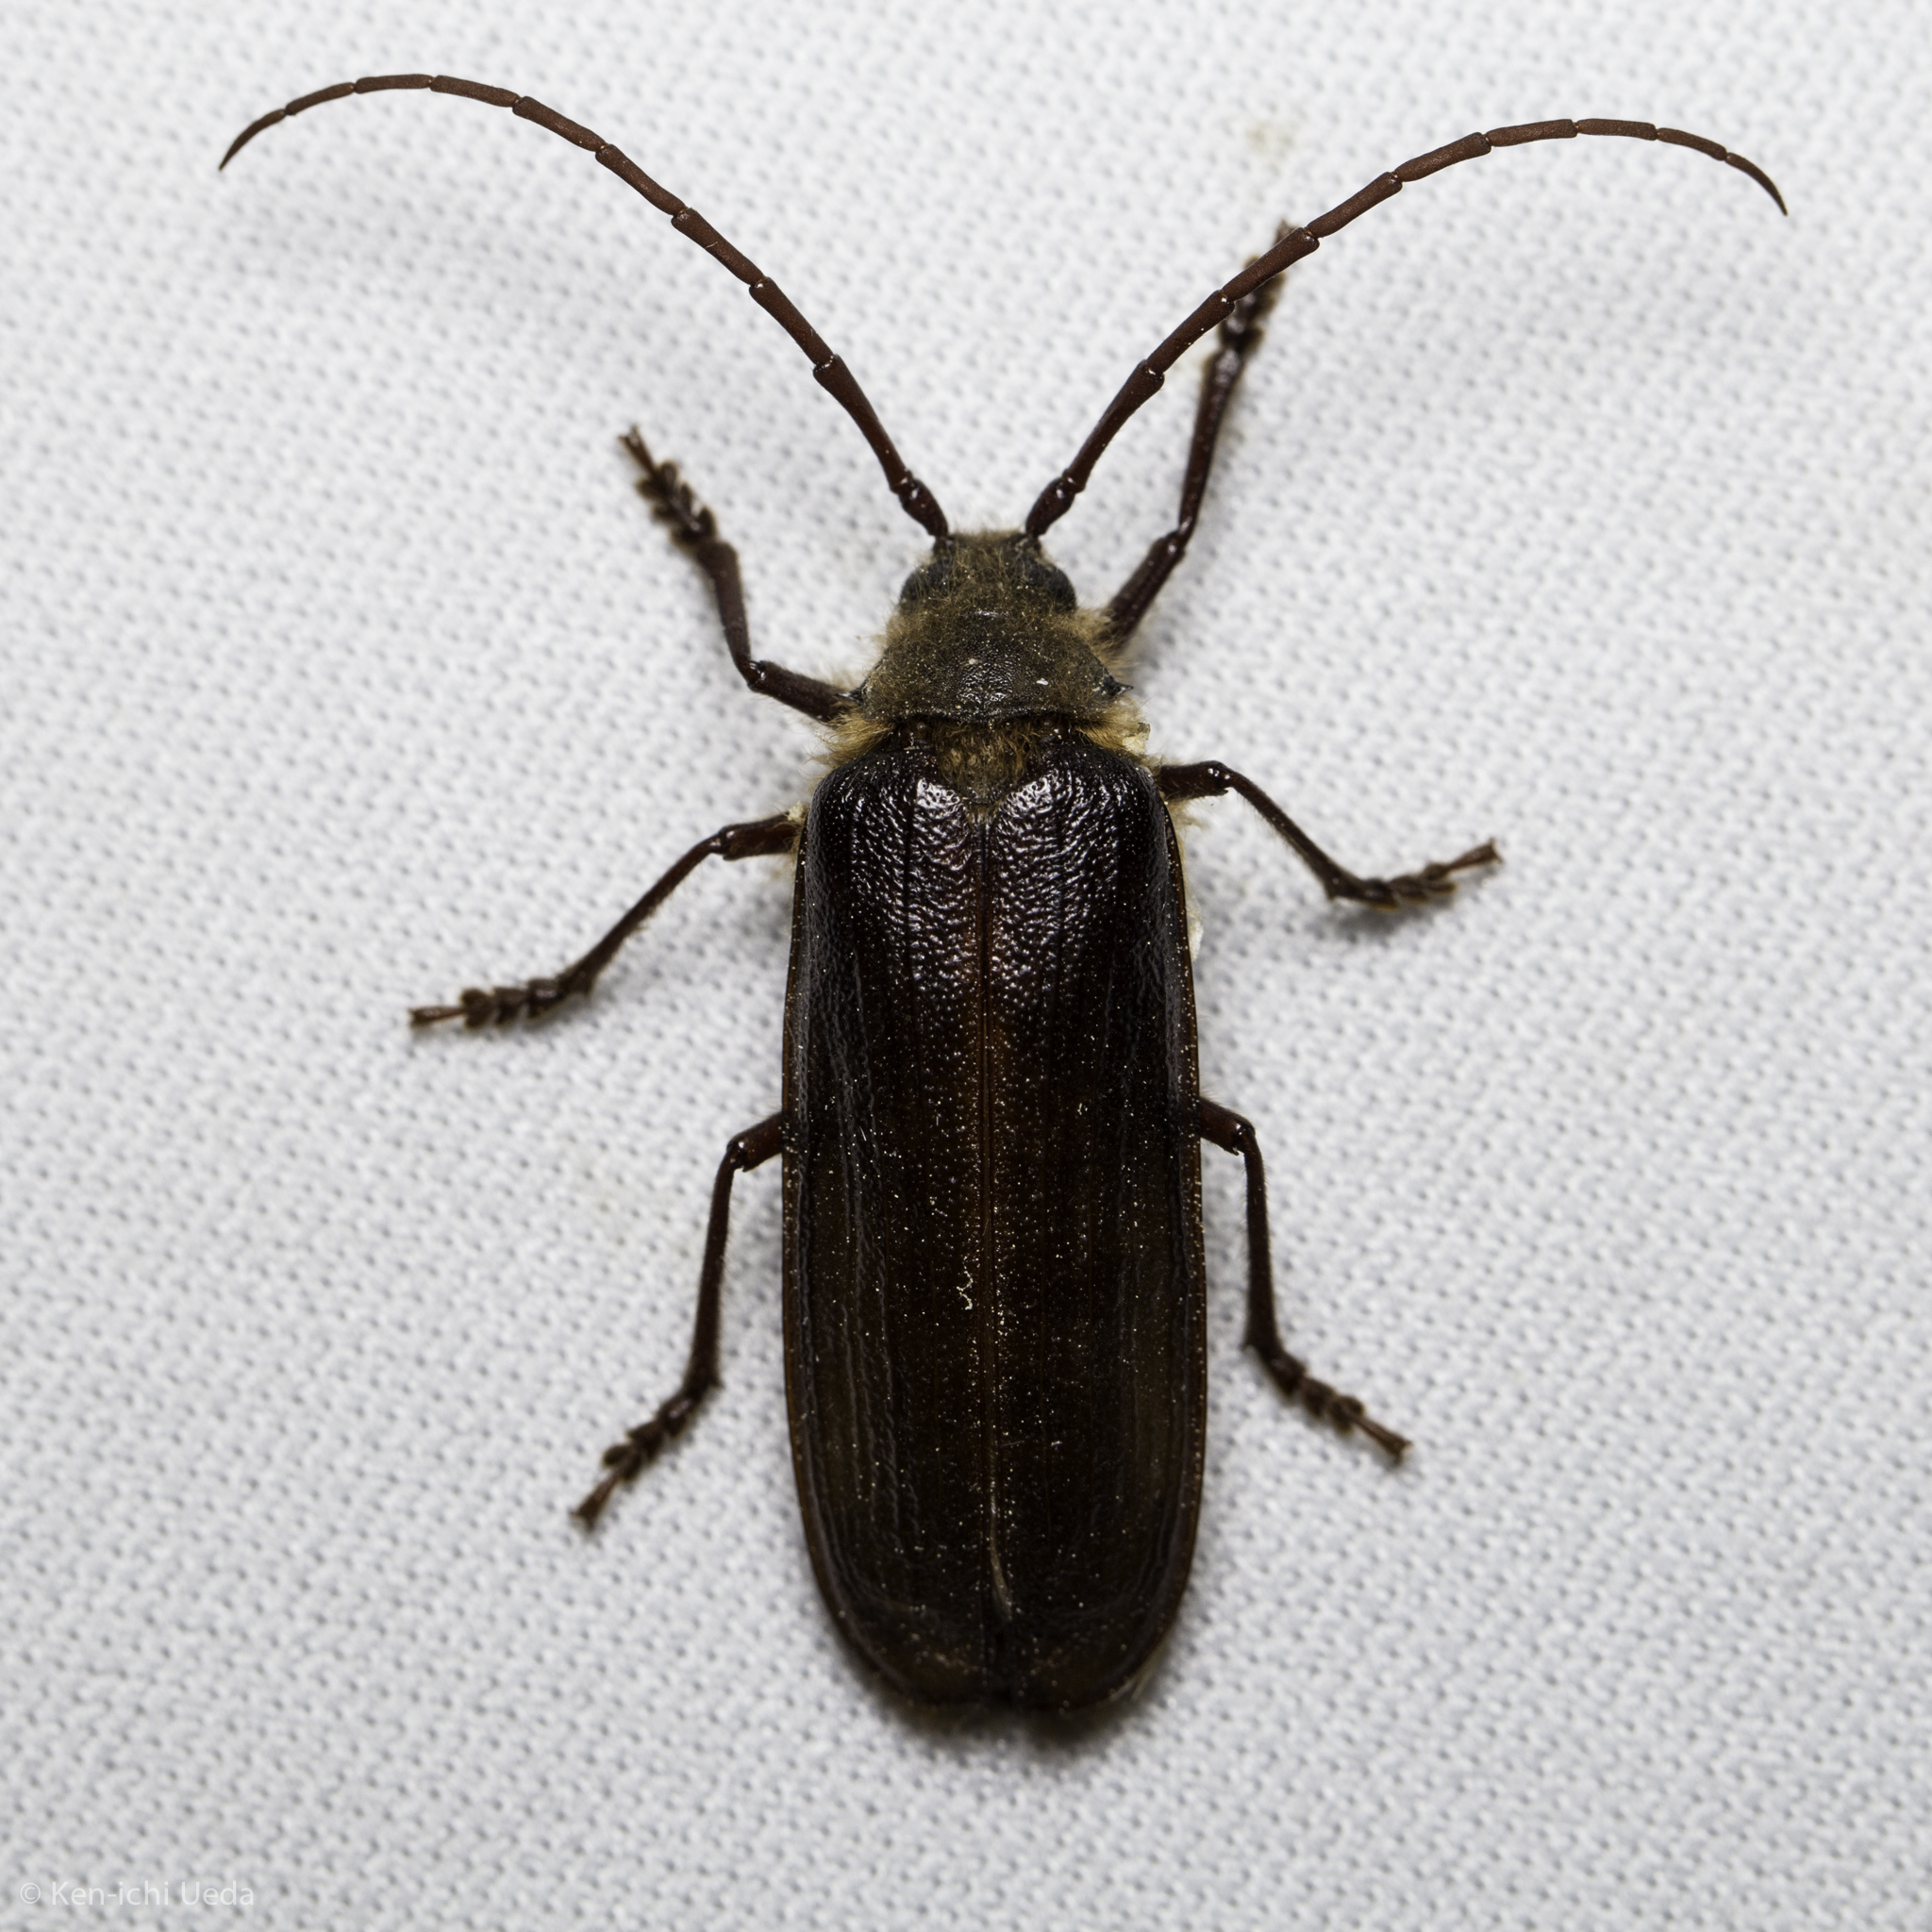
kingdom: Animalia
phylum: Arthropoda
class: Insecta
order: Coleoptera
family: Cerambycidae
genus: Tragosoma
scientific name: Tragosoma harrisii
